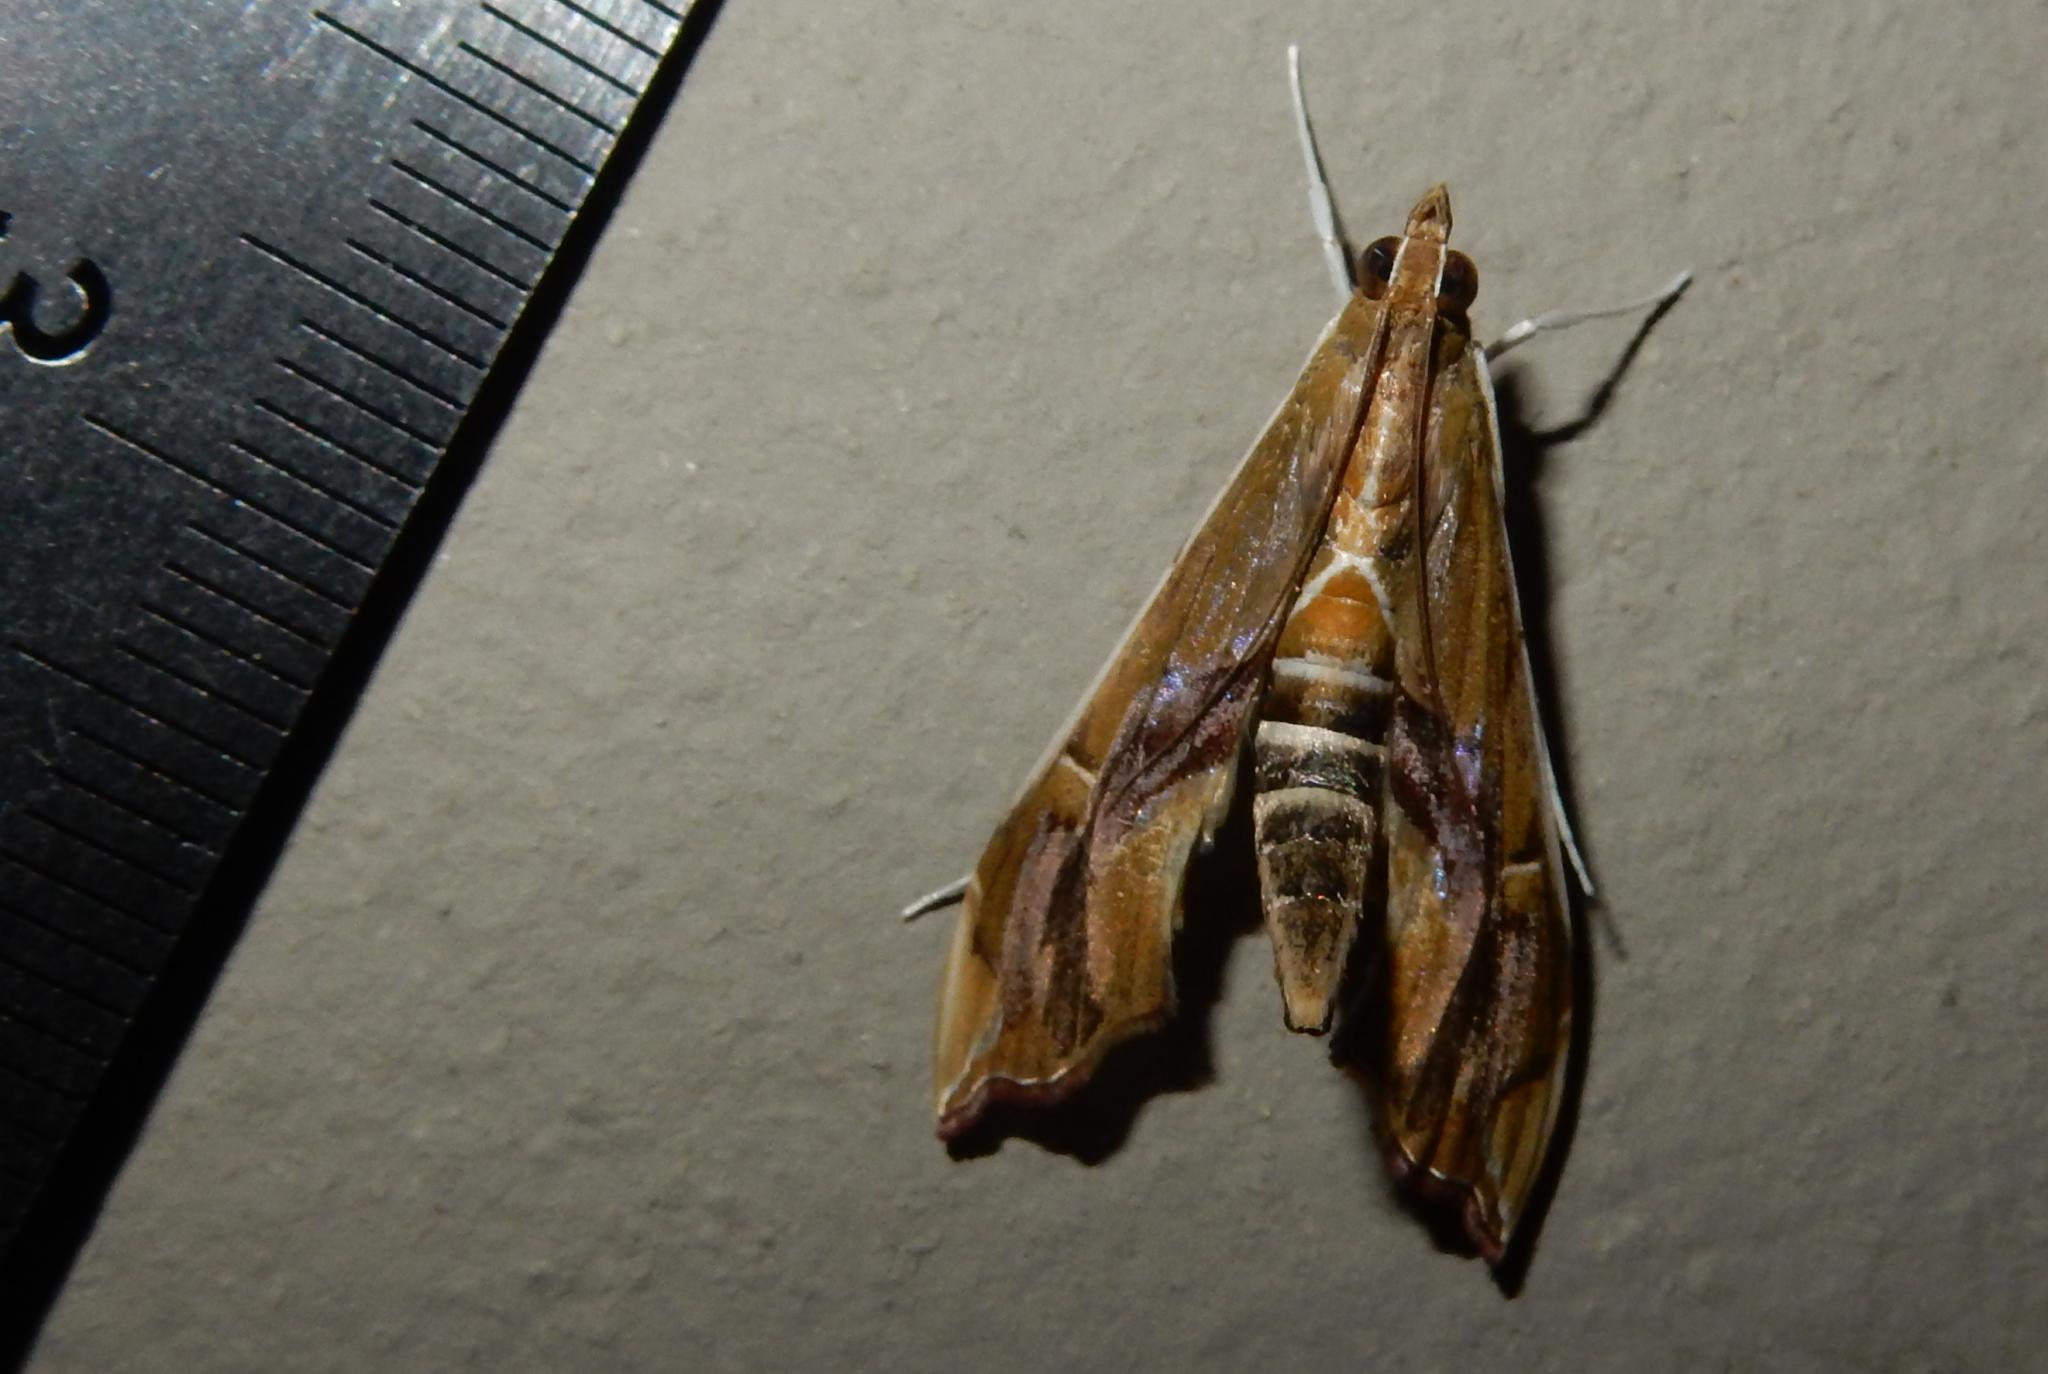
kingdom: Animalia
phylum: Arthropoda
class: Insecta
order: Lepidoptera
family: Crambidae
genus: Agathodes
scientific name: Agathodes musivalis
